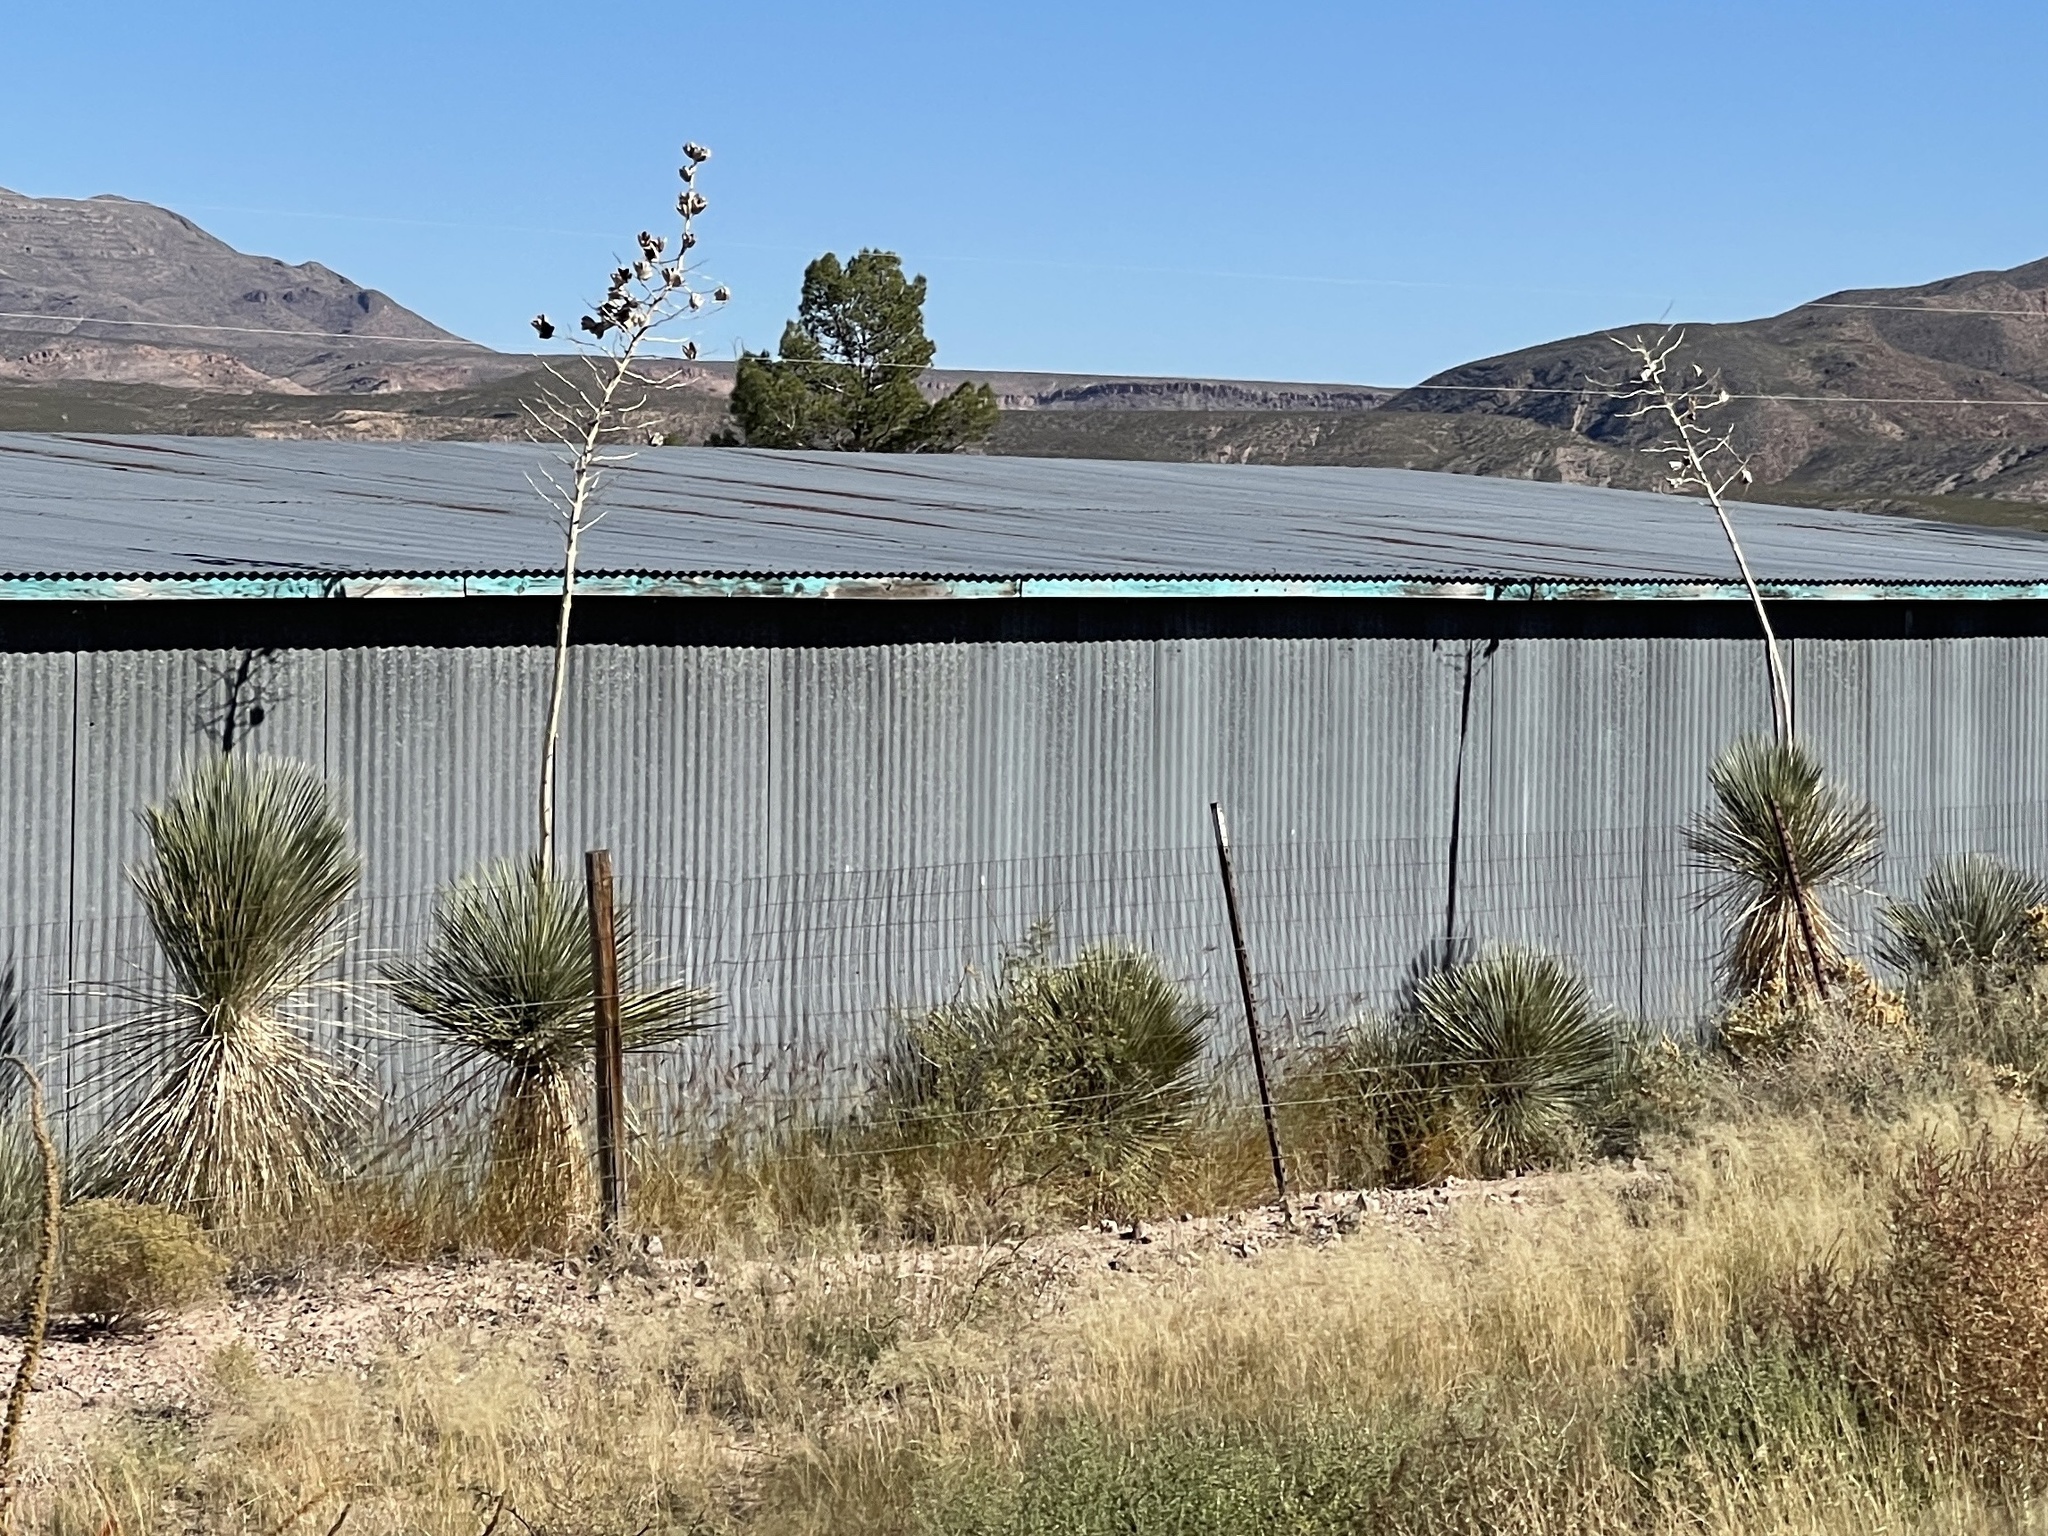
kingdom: Plantae
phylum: Tracheophyta
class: Liliopsida
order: Asparagales
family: Asparagaceae
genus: Yucca
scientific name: Yucca elata
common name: Palmella
